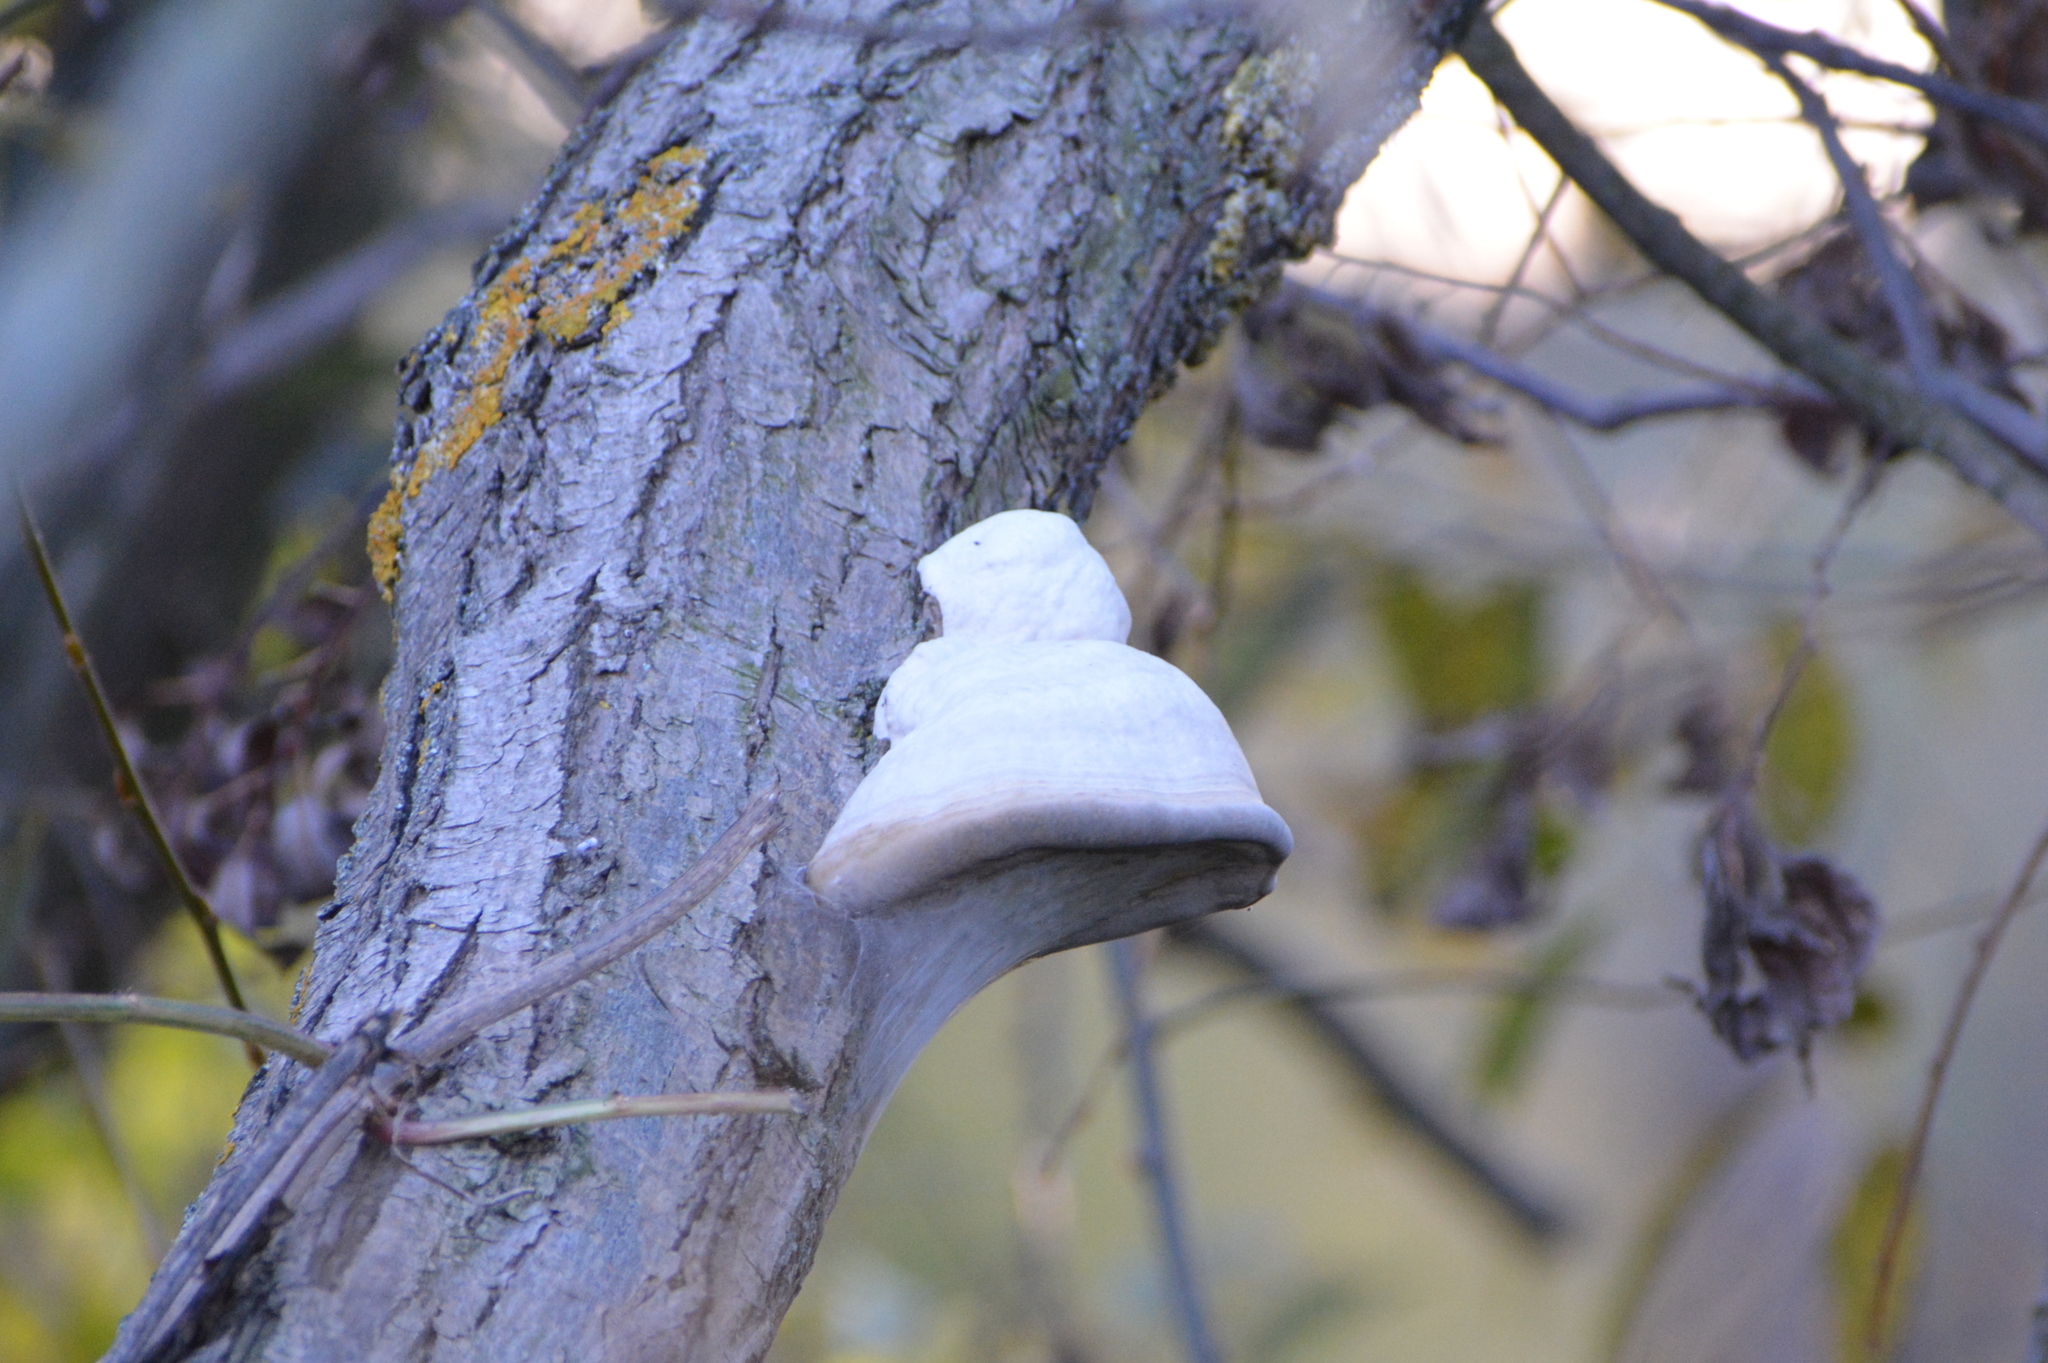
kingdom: Fungi
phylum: Basidiomycota
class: Agaricomycetes
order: Polyporales
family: Polyporaceae
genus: Fomes
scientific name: Fomes fomentarius
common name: Hoof fungus
